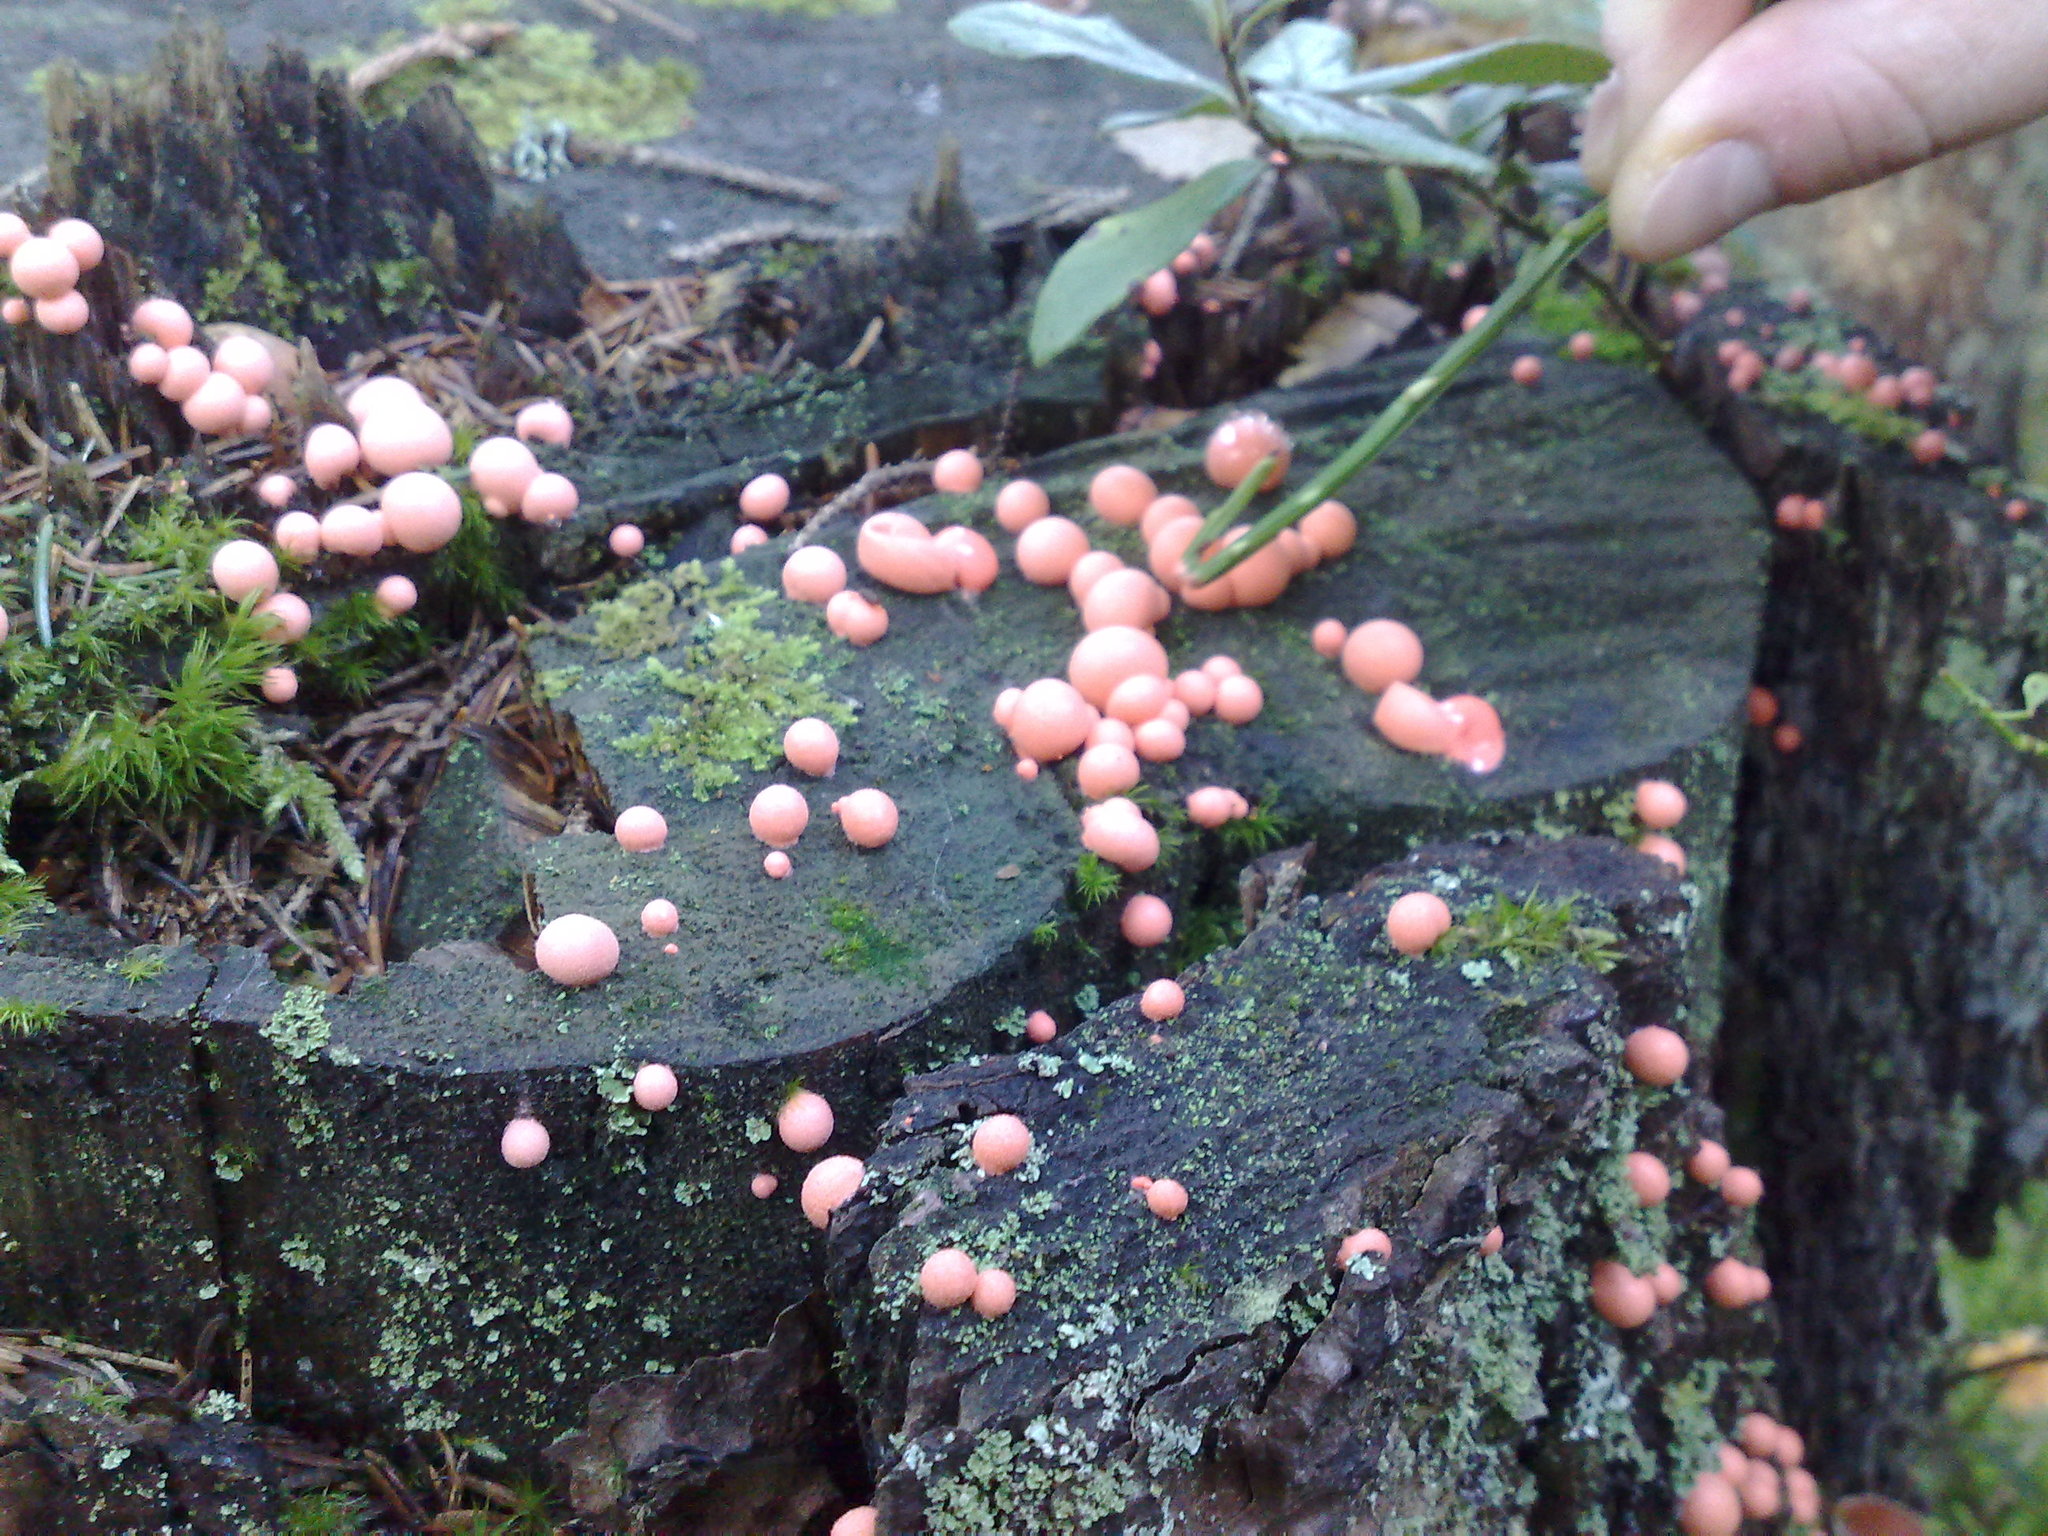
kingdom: Protozoa
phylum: Mycetozoa
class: Myxomycetes
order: Cribrariales
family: Tubiferaceae
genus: Lycogala
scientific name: Lycogala epidendrum
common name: Wolf's milk
